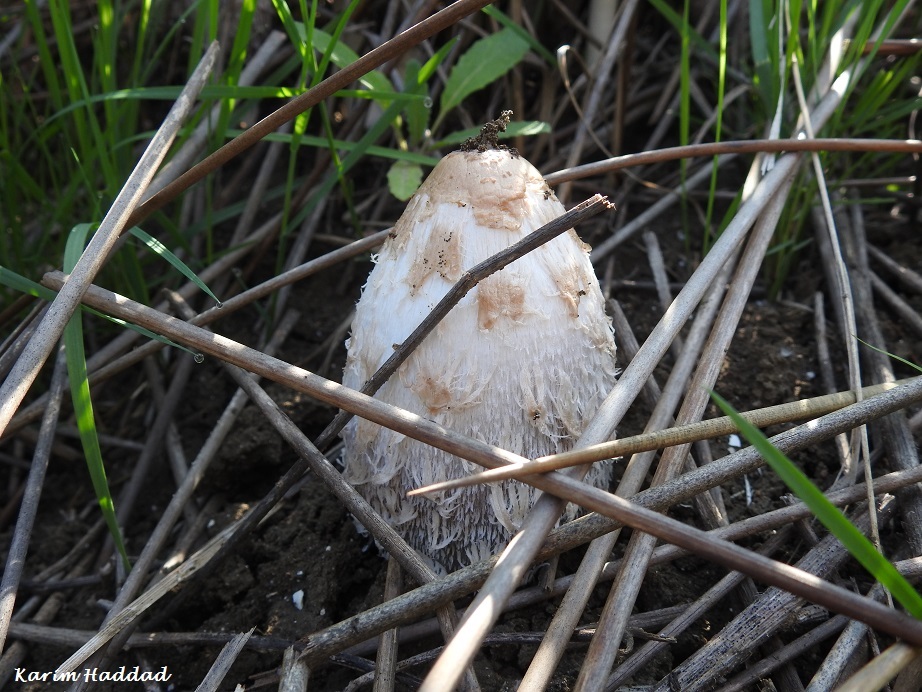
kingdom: Fungi
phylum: Basidiomycota
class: Agaricomycetes
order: Agaricales
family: Agaricaceae
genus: Coprinus
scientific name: Coprinus comatus
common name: Lawyer's wig
